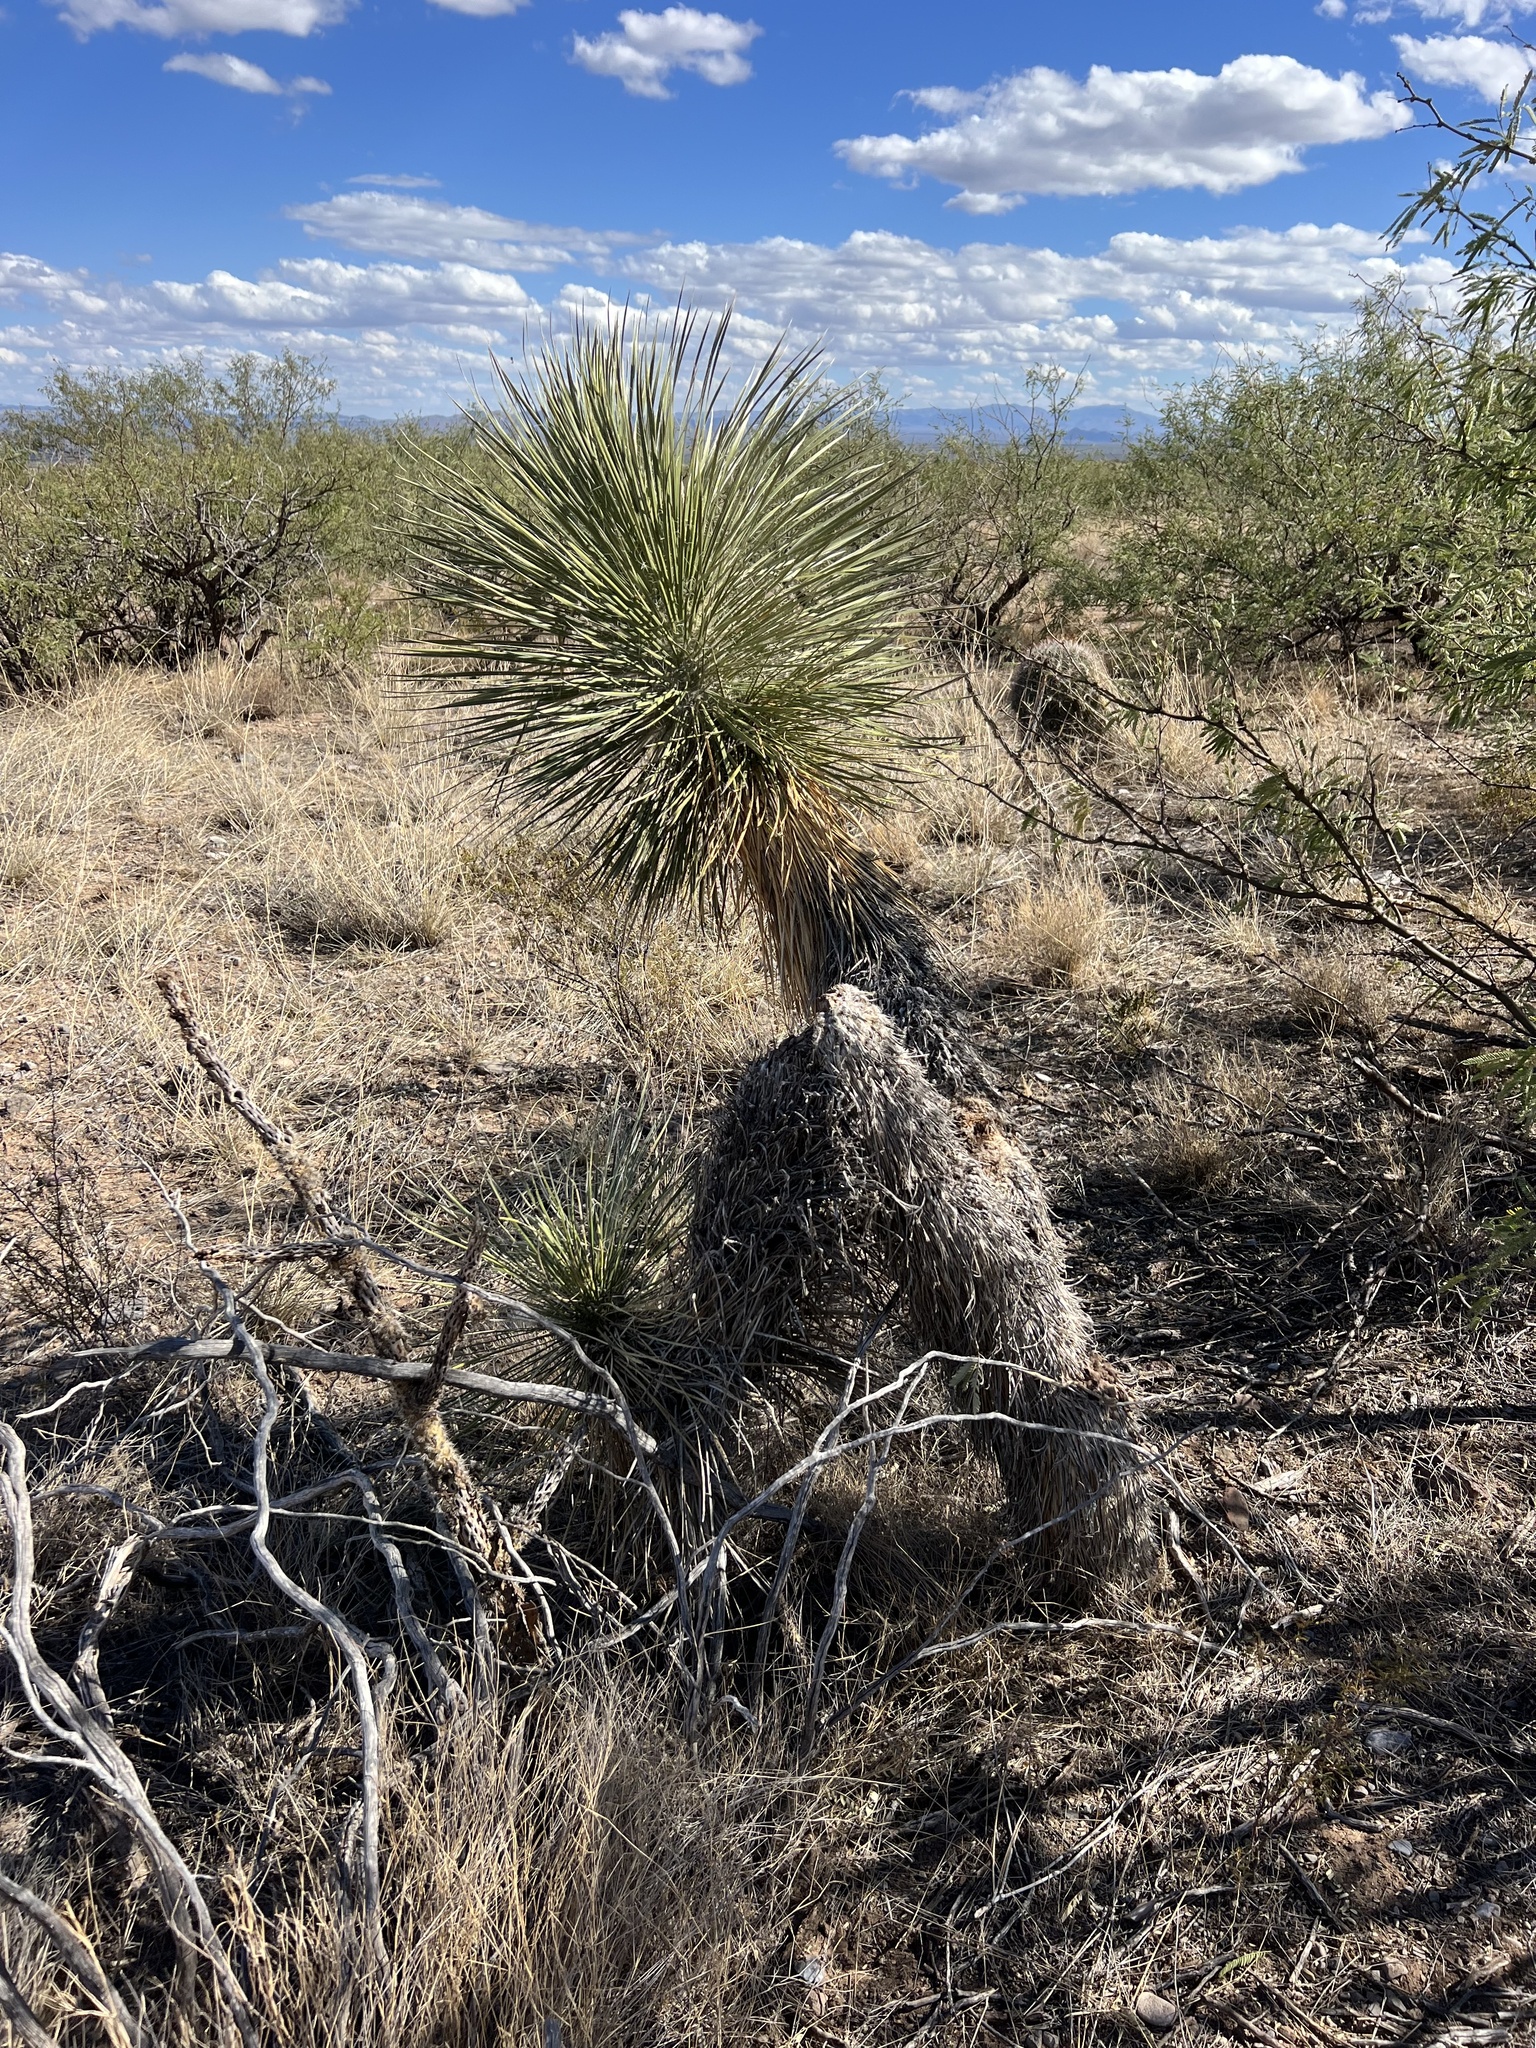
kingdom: Plantae
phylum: Tracheophyta
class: Liliopsida
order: Asparagales
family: Asparagaceae
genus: Yucca
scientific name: Yucca elata
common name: Palmella
